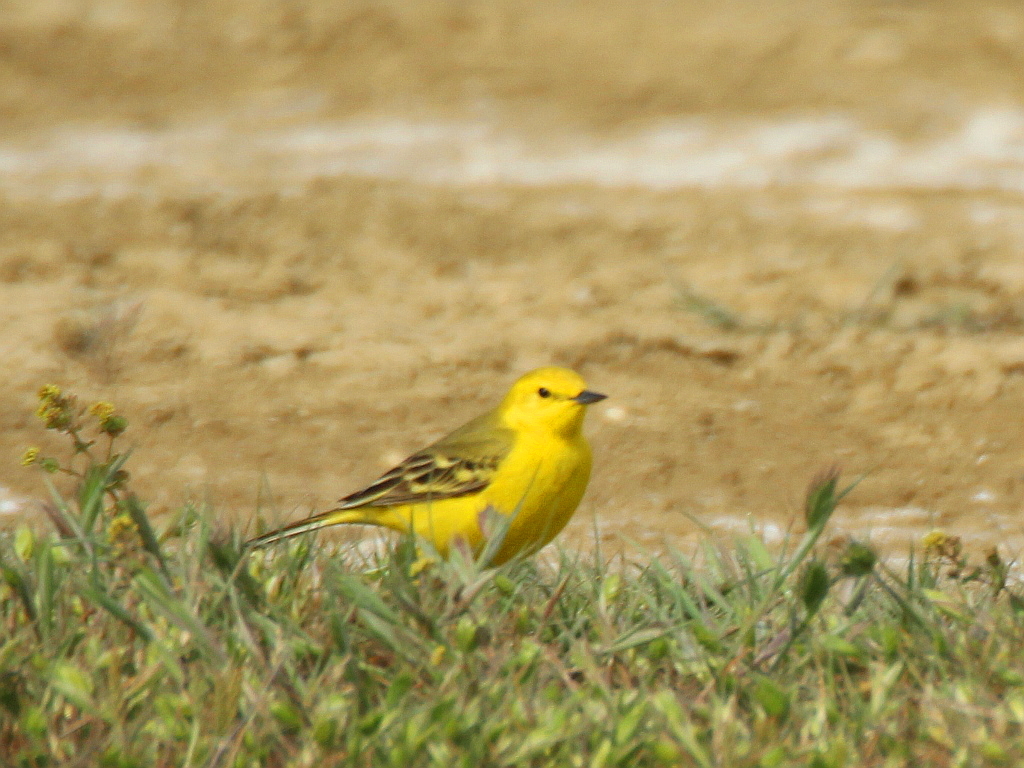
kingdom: Animalia
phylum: Chordata
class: Aves
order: Passeriformes
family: Motacillidae
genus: Motacilla
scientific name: Motacilla flava
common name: Western yellow wagtail
